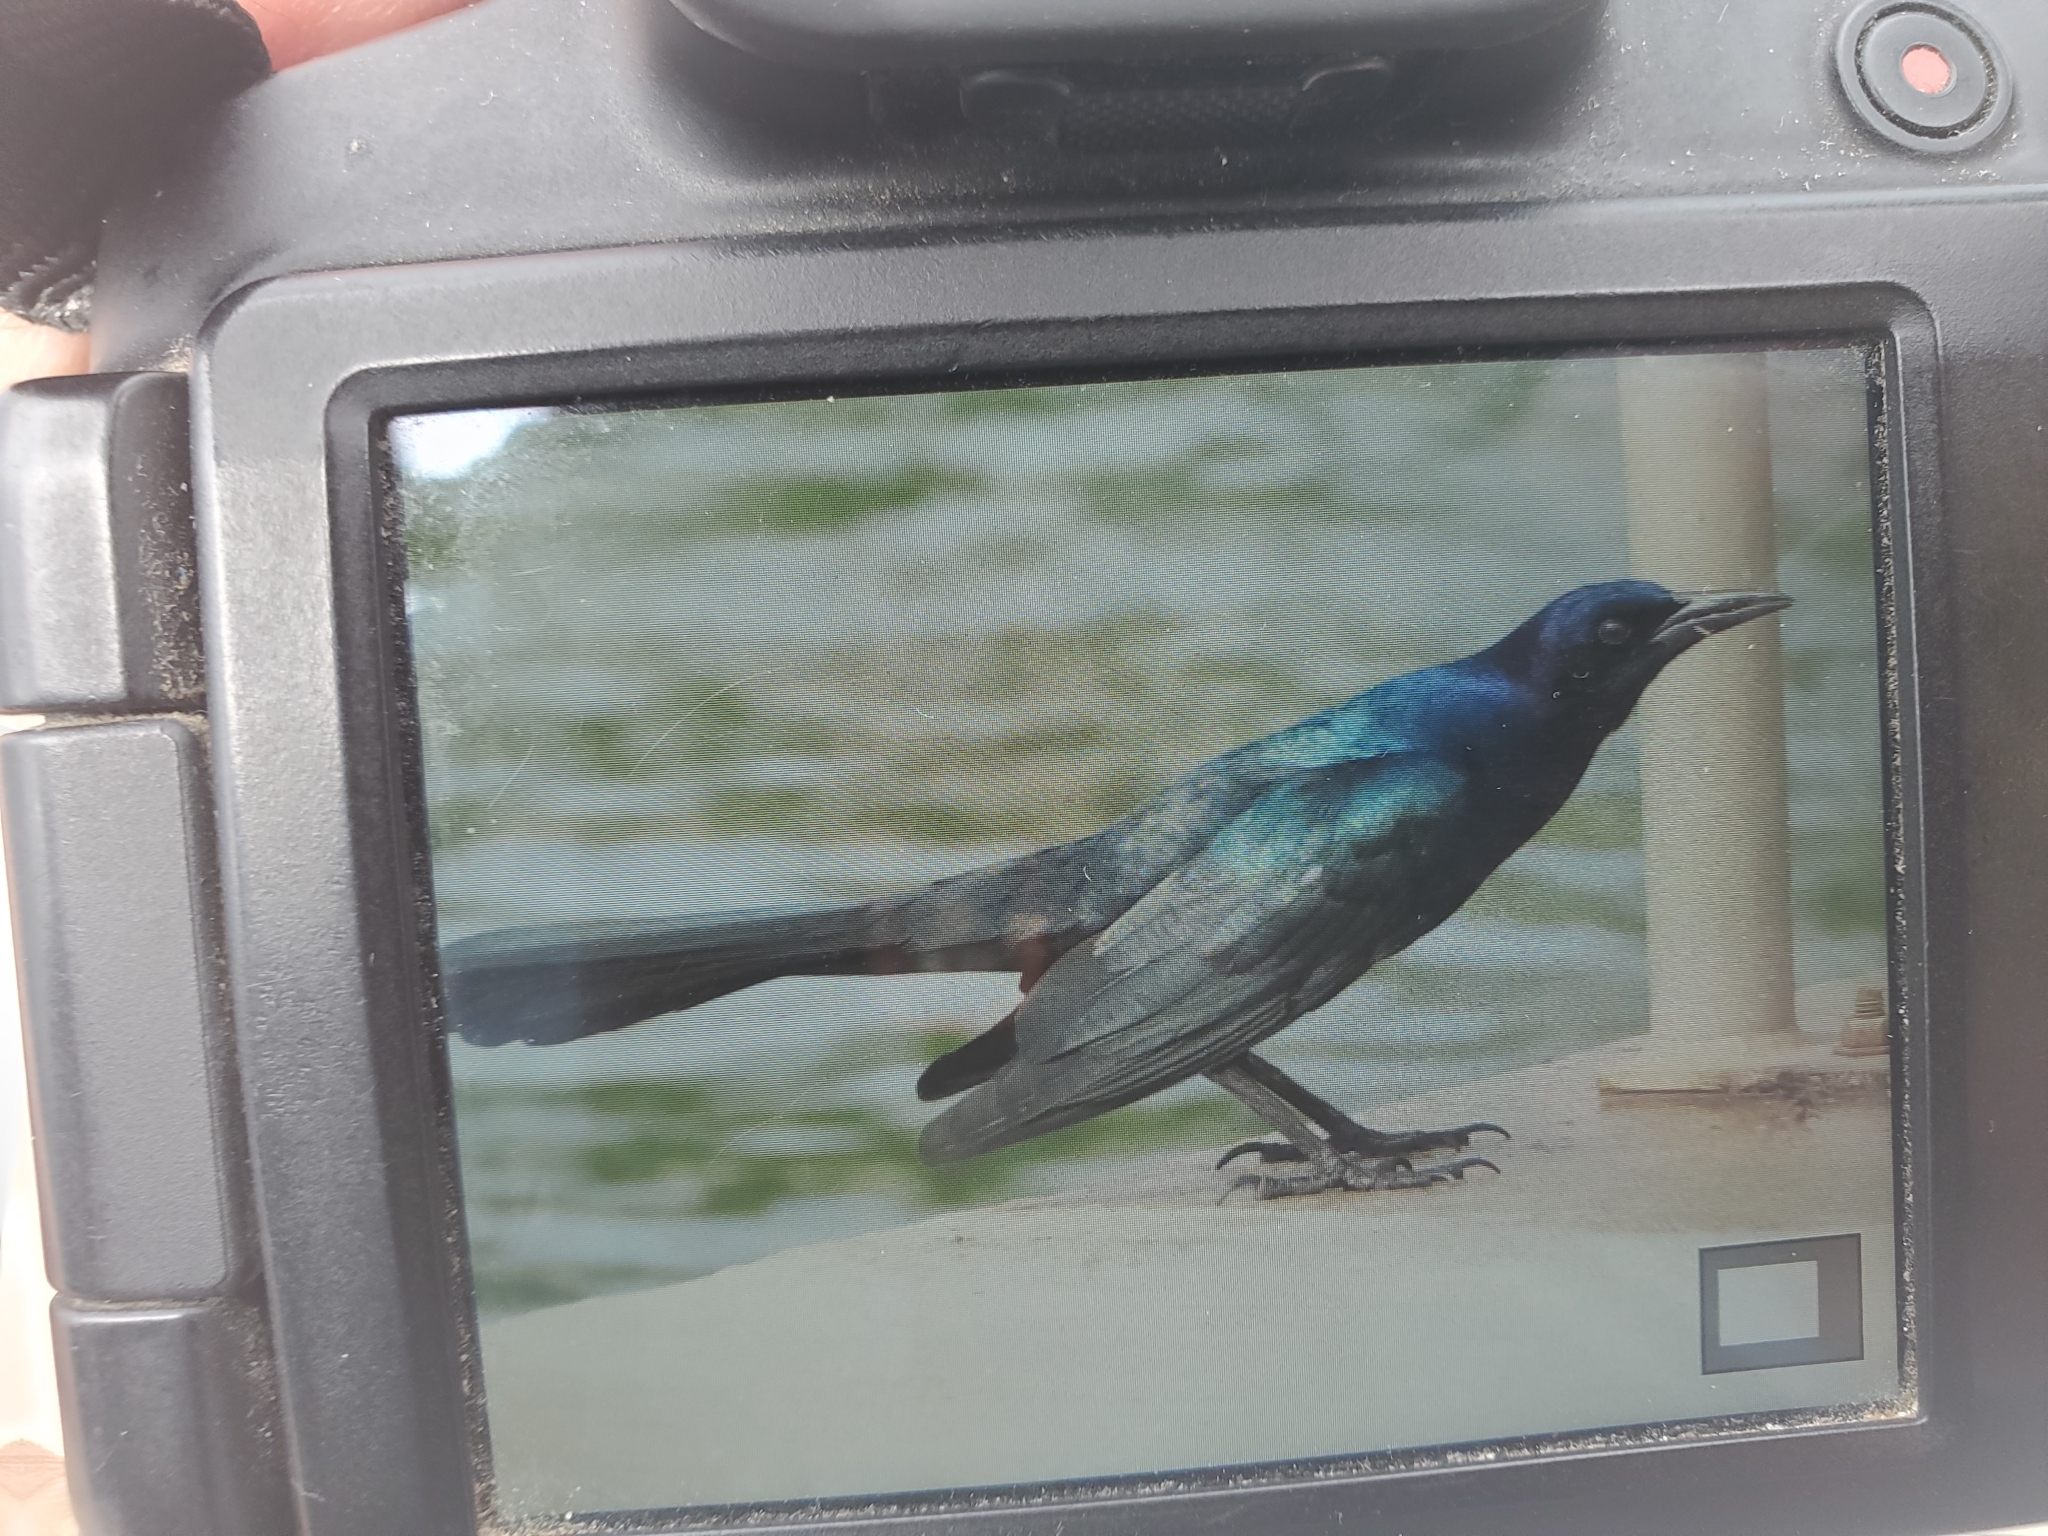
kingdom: Animalia
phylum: Chordata
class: Aves
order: Passeriformes
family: Icteridae
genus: Quiscalus
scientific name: Quiscalus major
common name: Boat-tailed grackle
